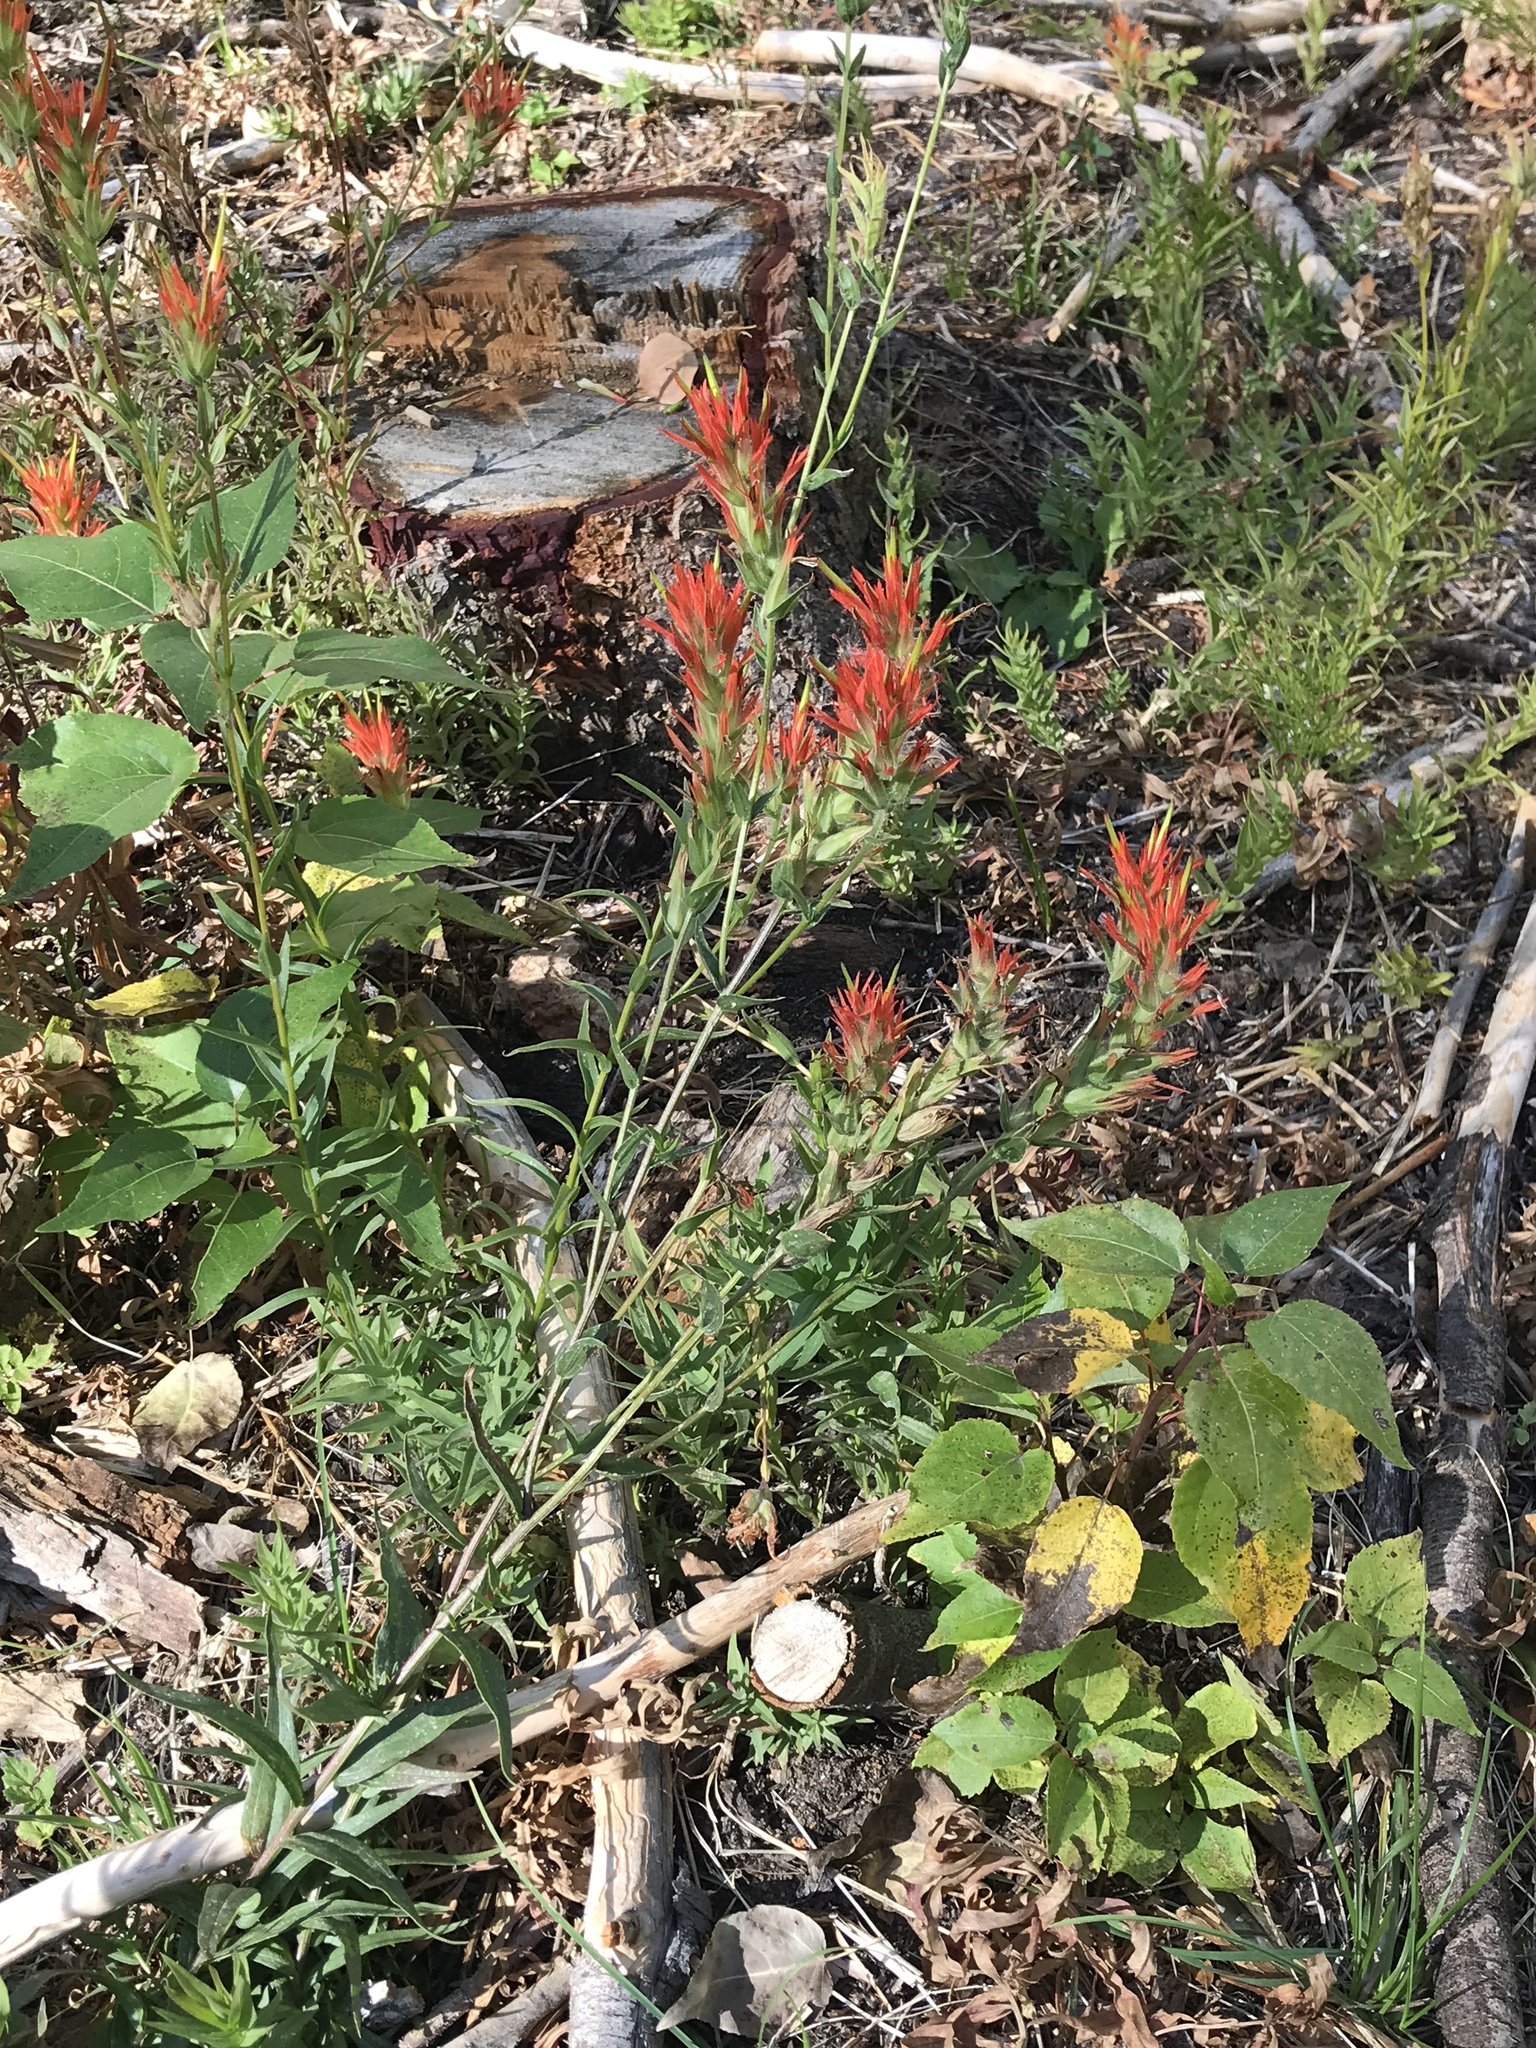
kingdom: Plantae
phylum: Tracheophyta
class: Magnoliopsida
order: Lamiales
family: Orobanchaceae
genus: Castilleja
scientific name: Castilleja miniata
